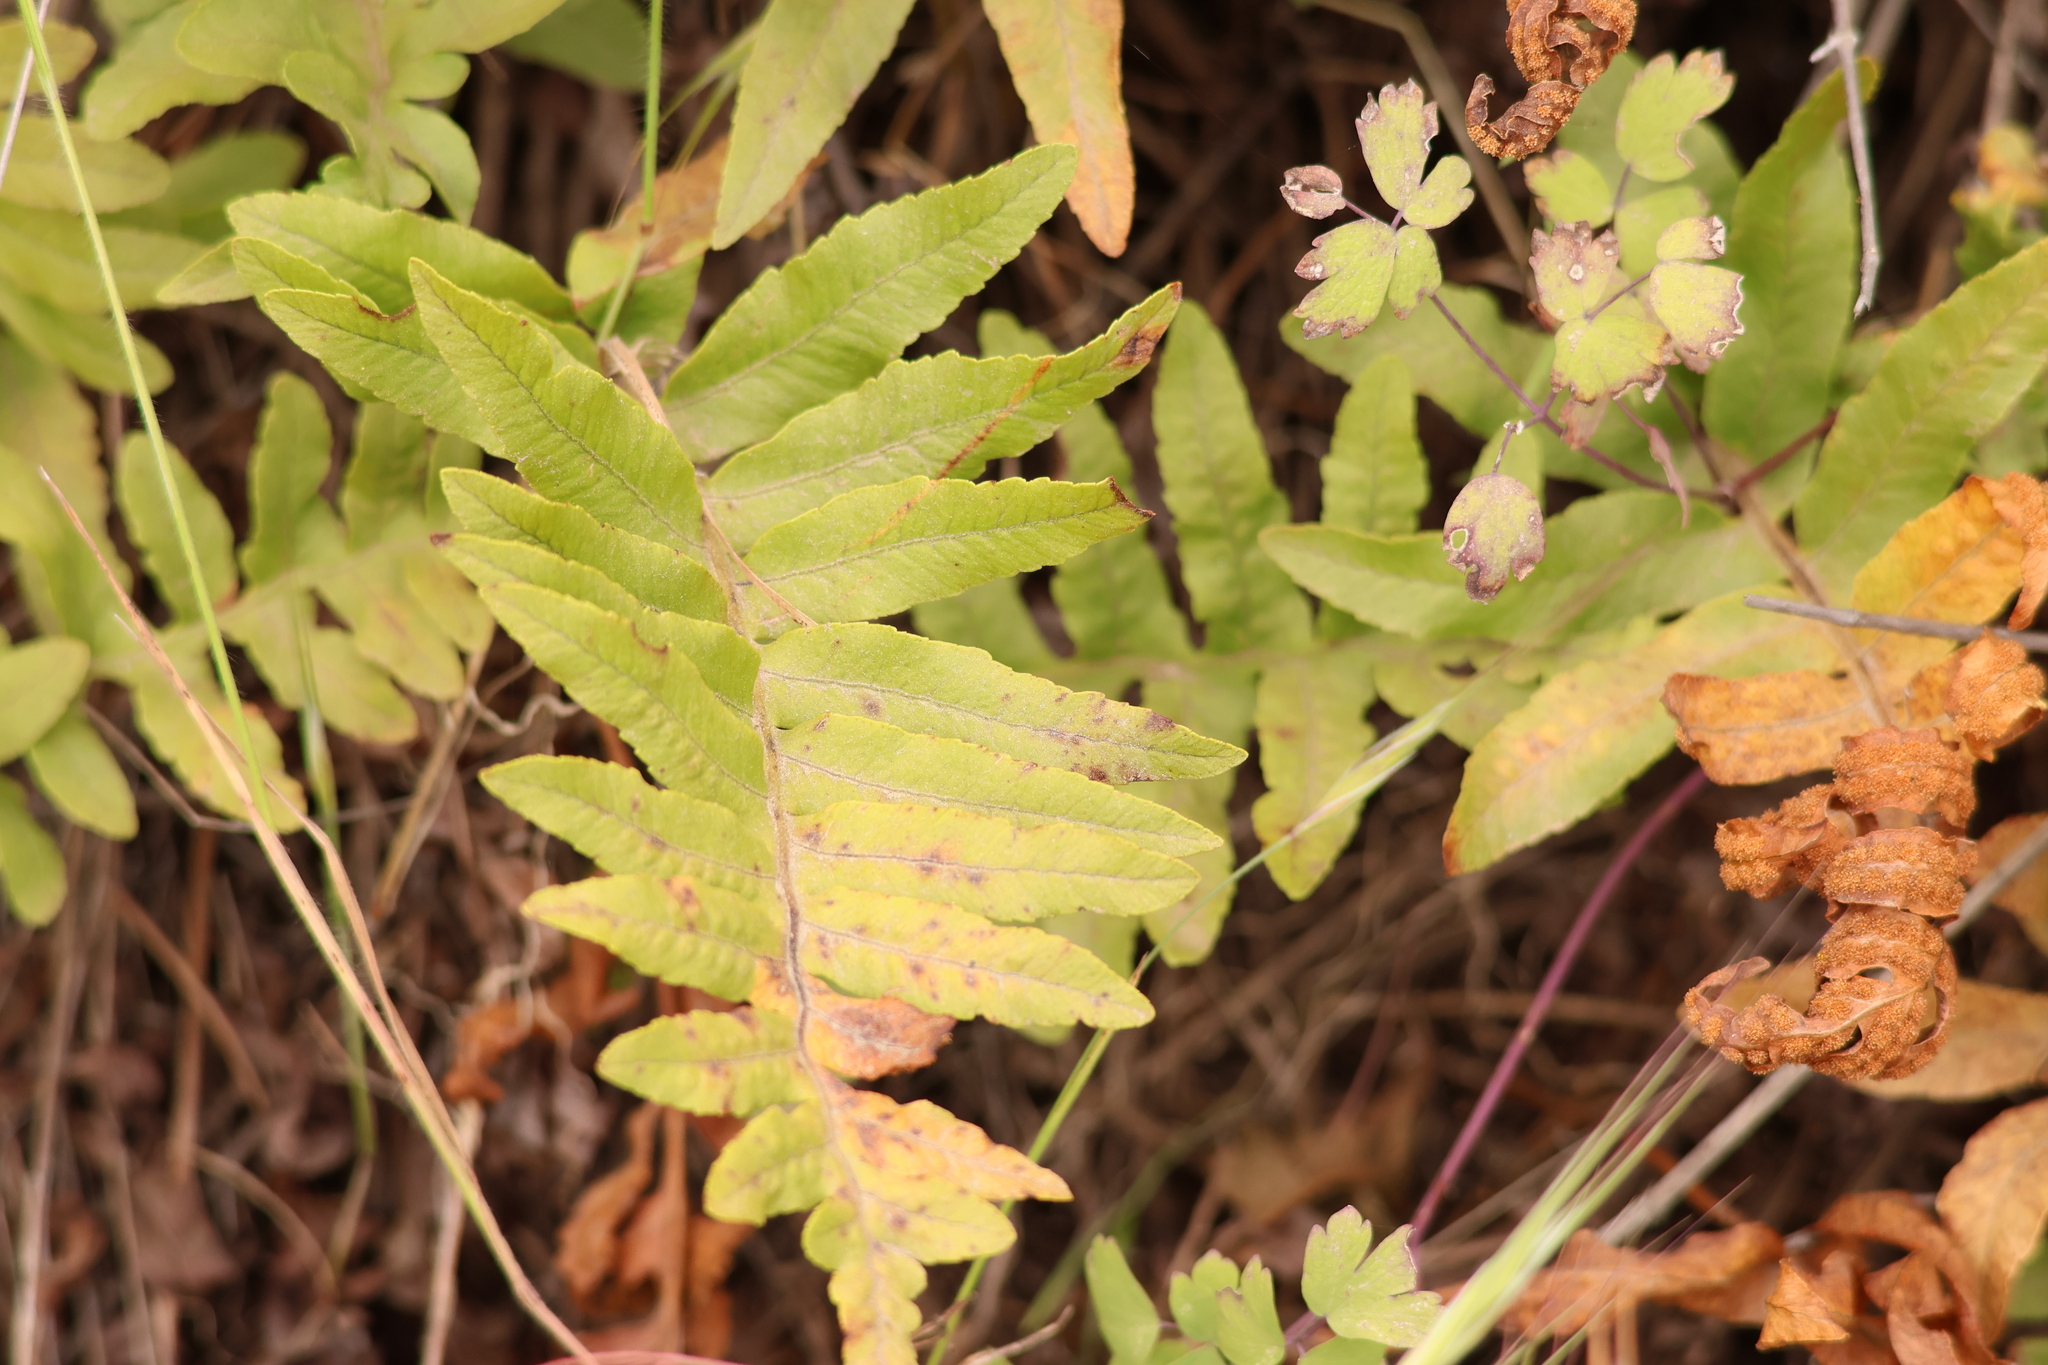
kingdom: Plantae
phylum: Tracheophyta
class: Polypodiopsida
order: Polypodiales
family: Polypodiaceae
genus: Polypodium
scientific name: Polypodium californicum
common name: California polypody
